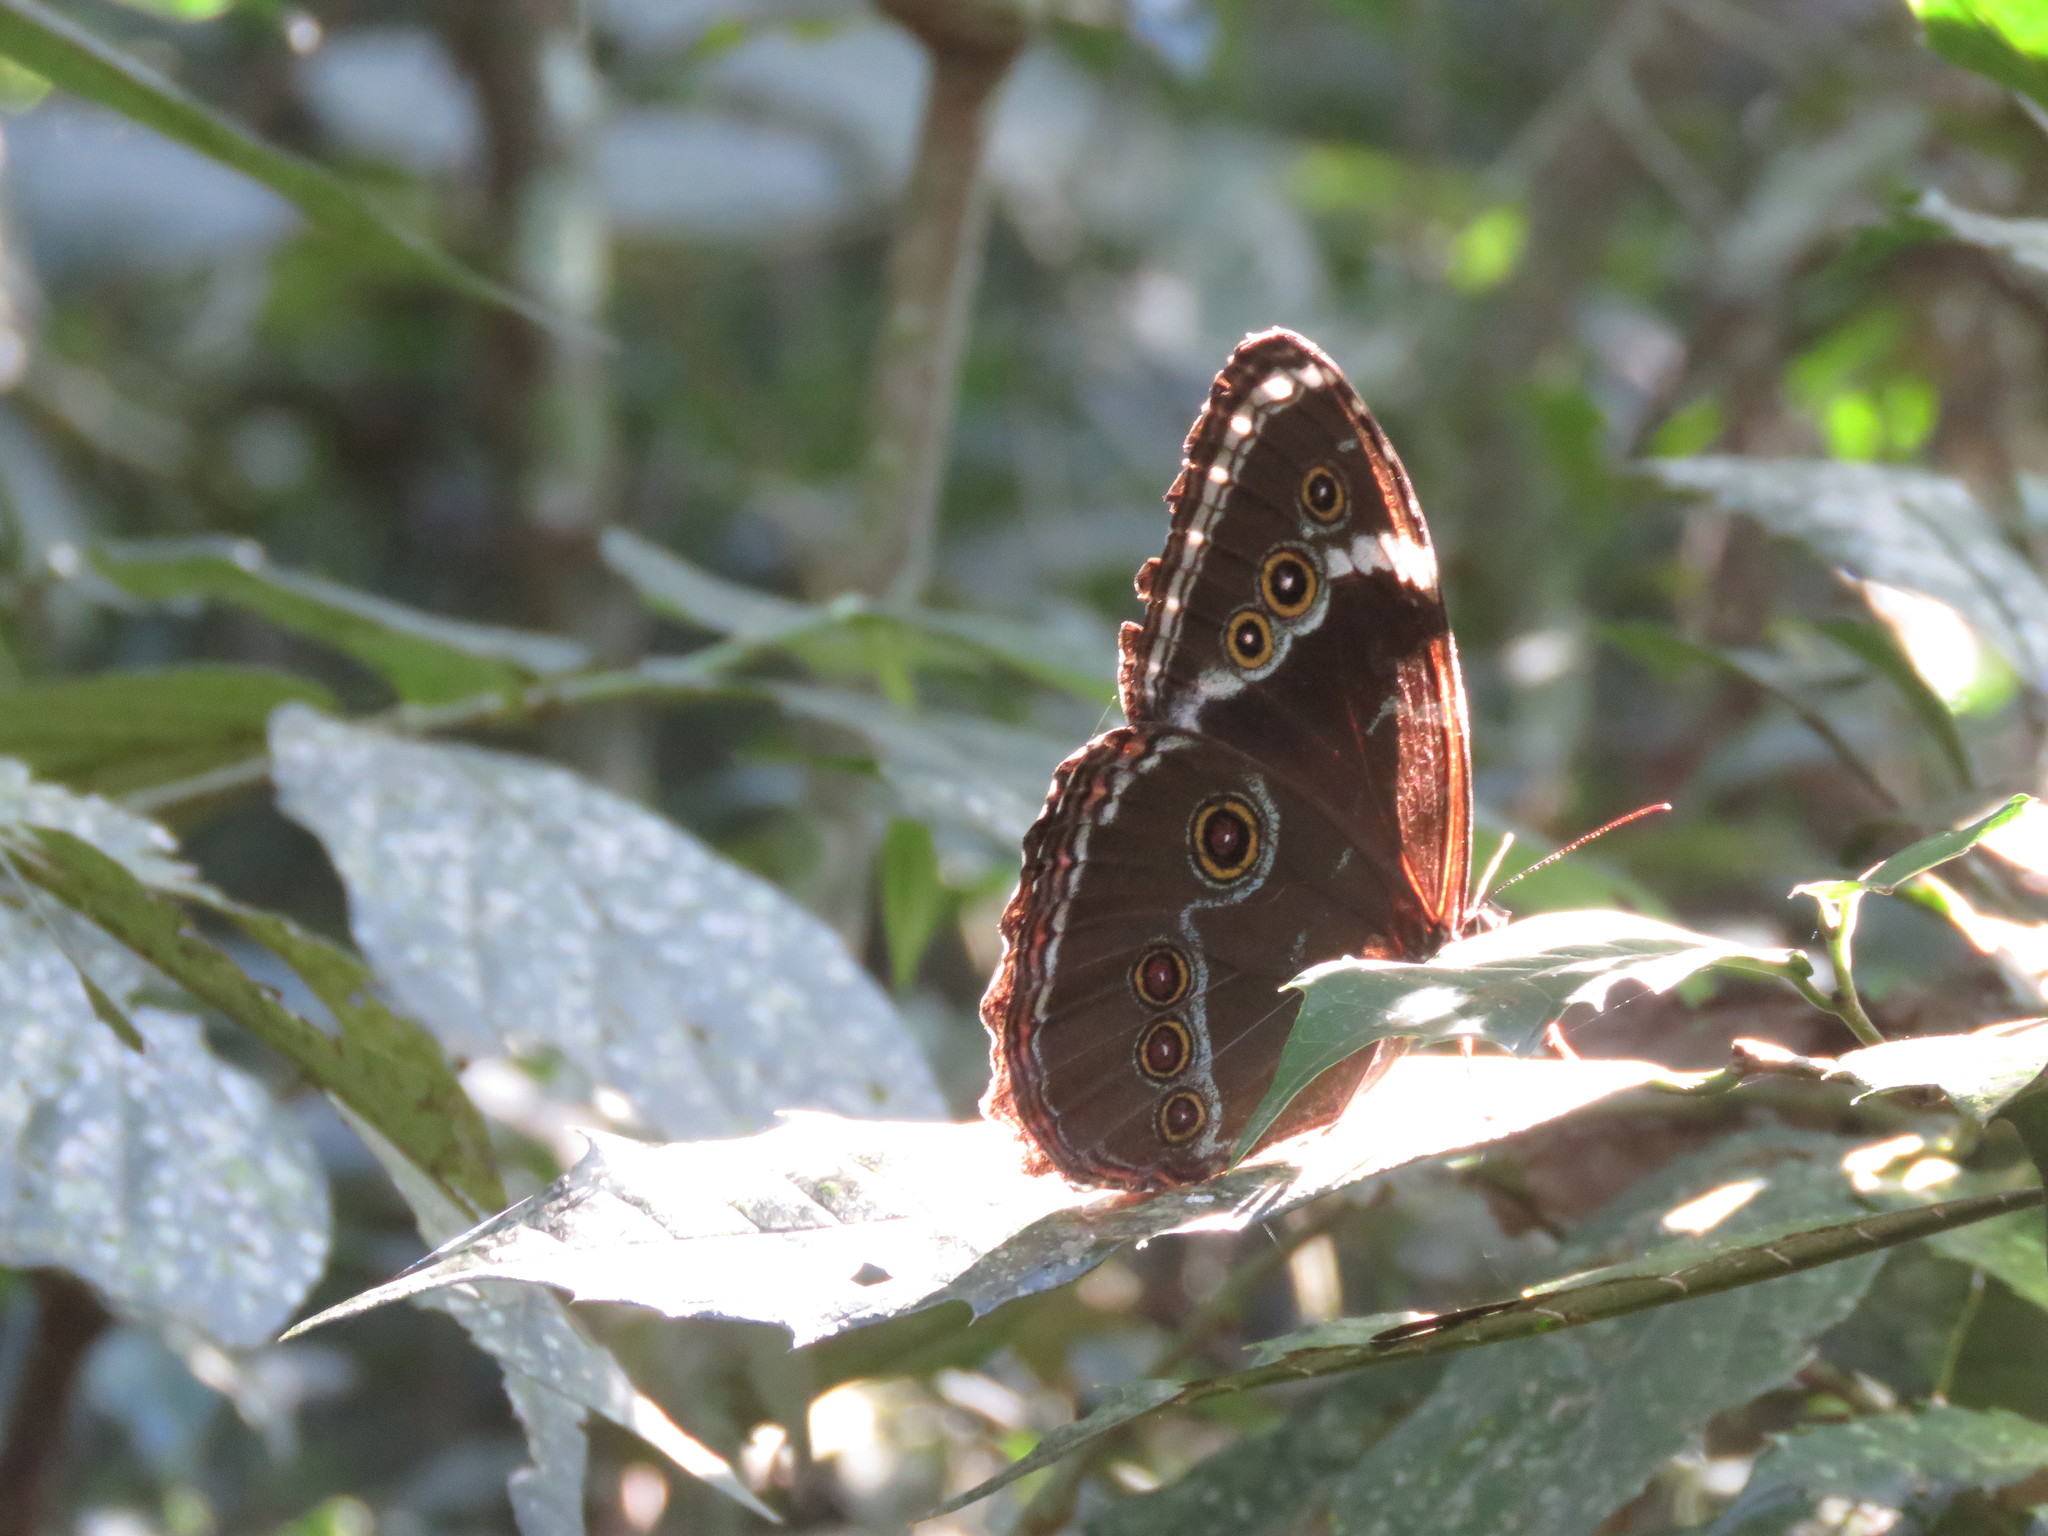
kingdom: Animalia
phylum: Arthropoda
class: Insecta
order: Lepidoptera
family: Nymphalidae
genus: Morpho
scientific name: Morpho helenor
